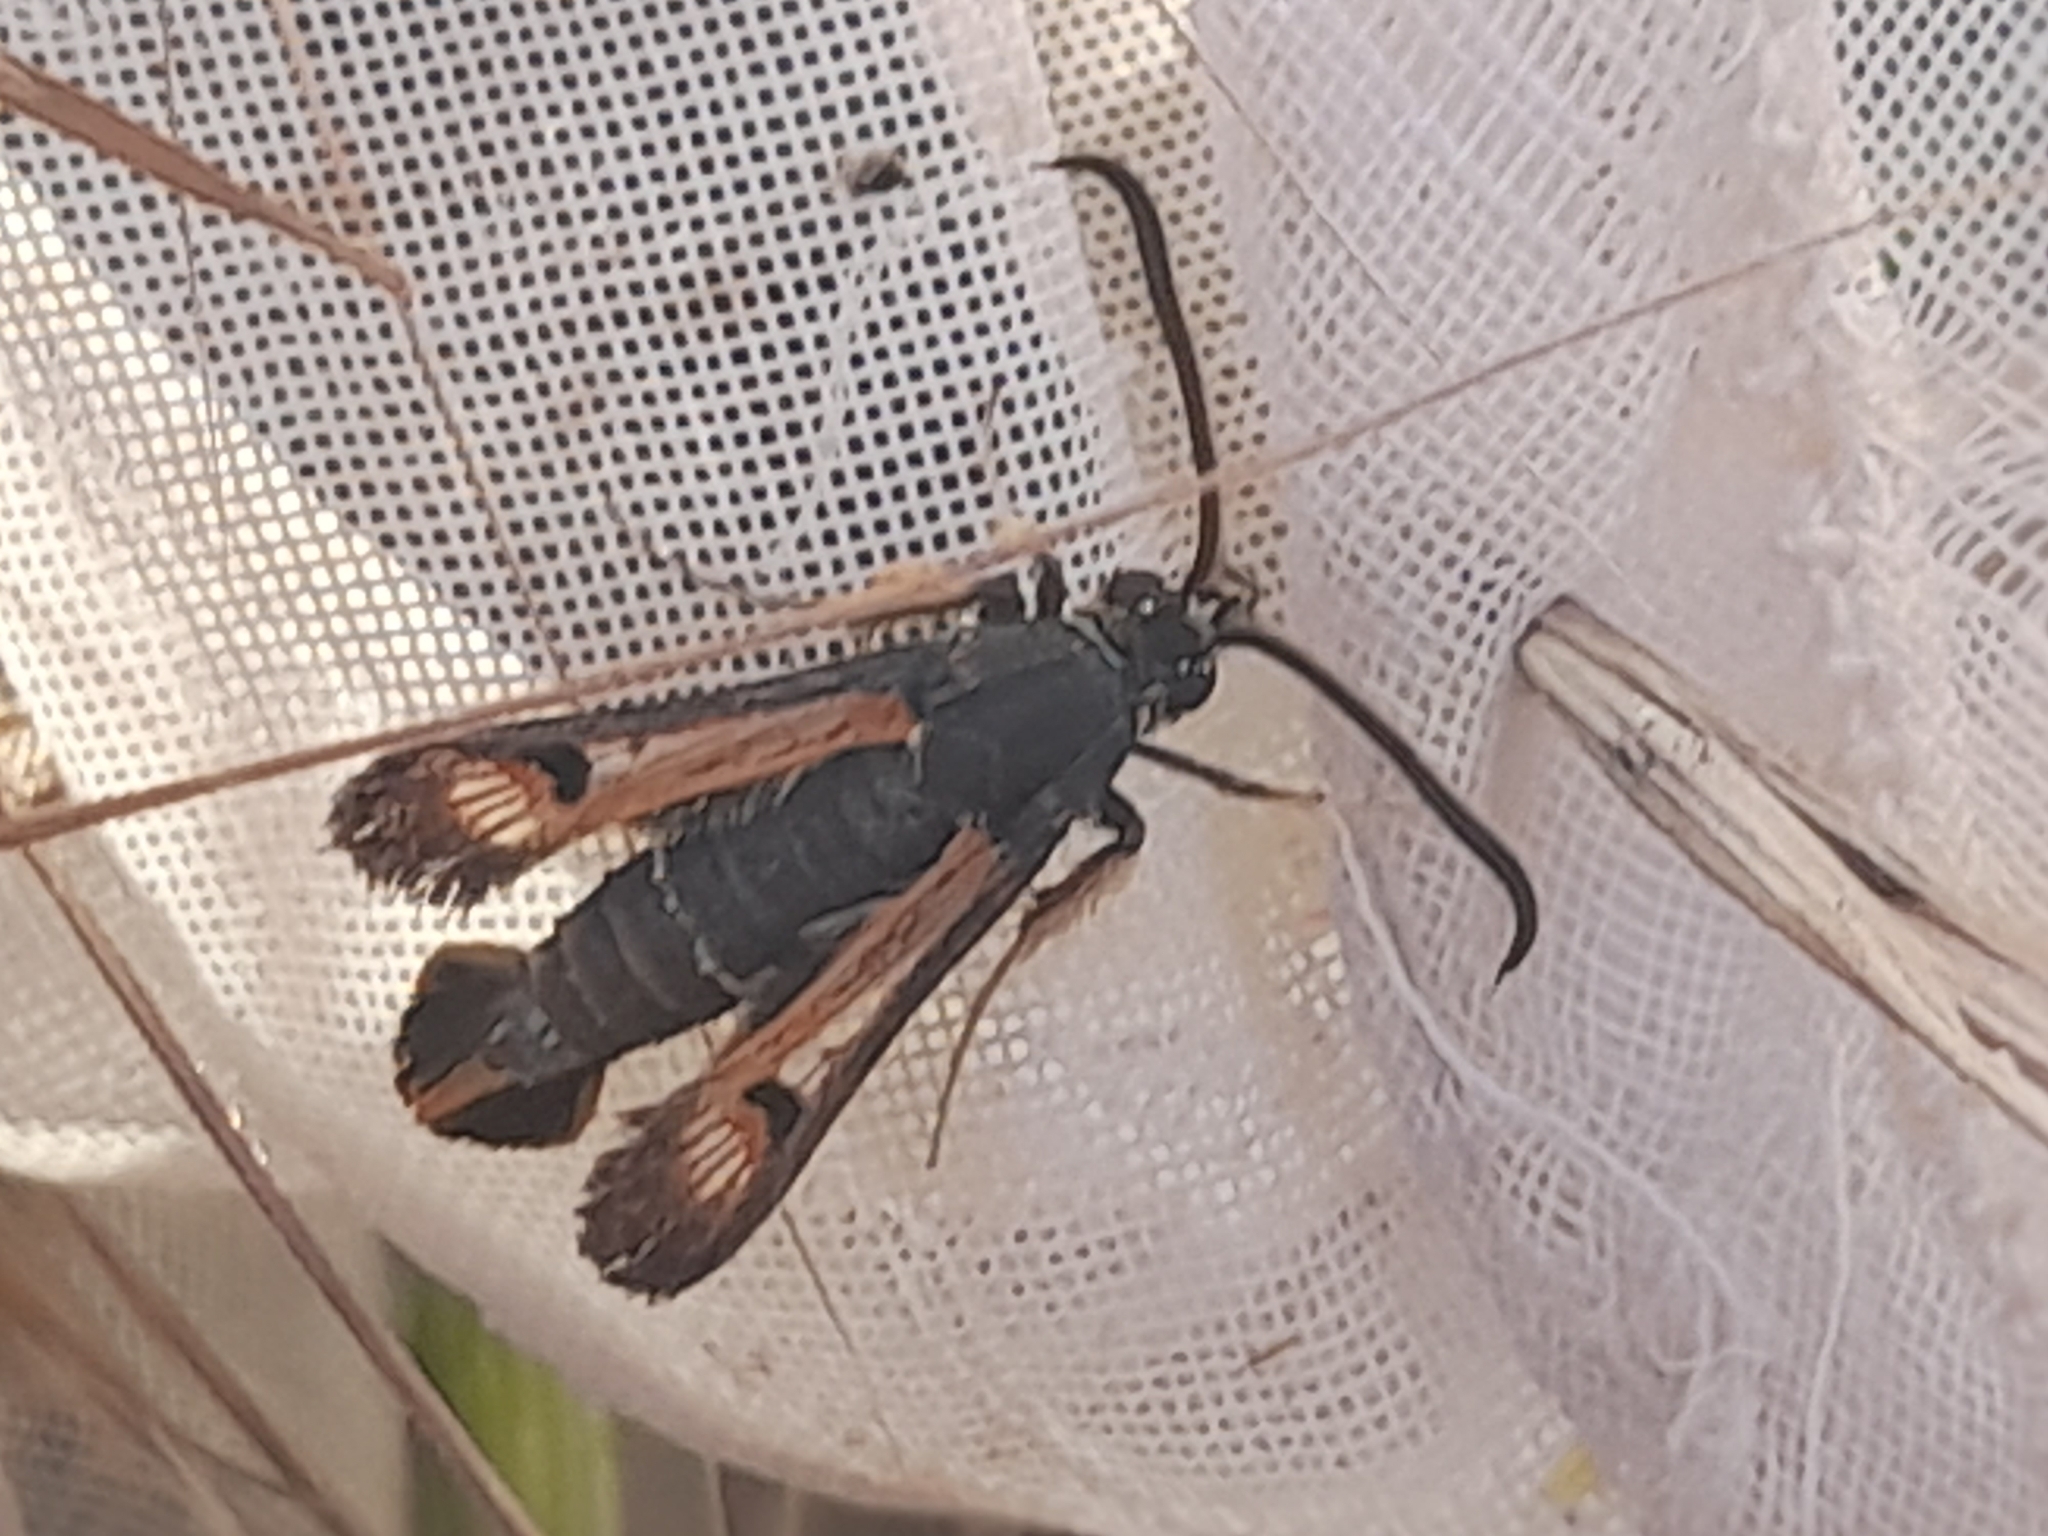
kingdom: Animalia
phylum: Arthropoda
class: Insecta
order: Lepidoptera
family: Sesiidae
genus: Pyropteron
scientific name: Pyropteron chrysidiforme
